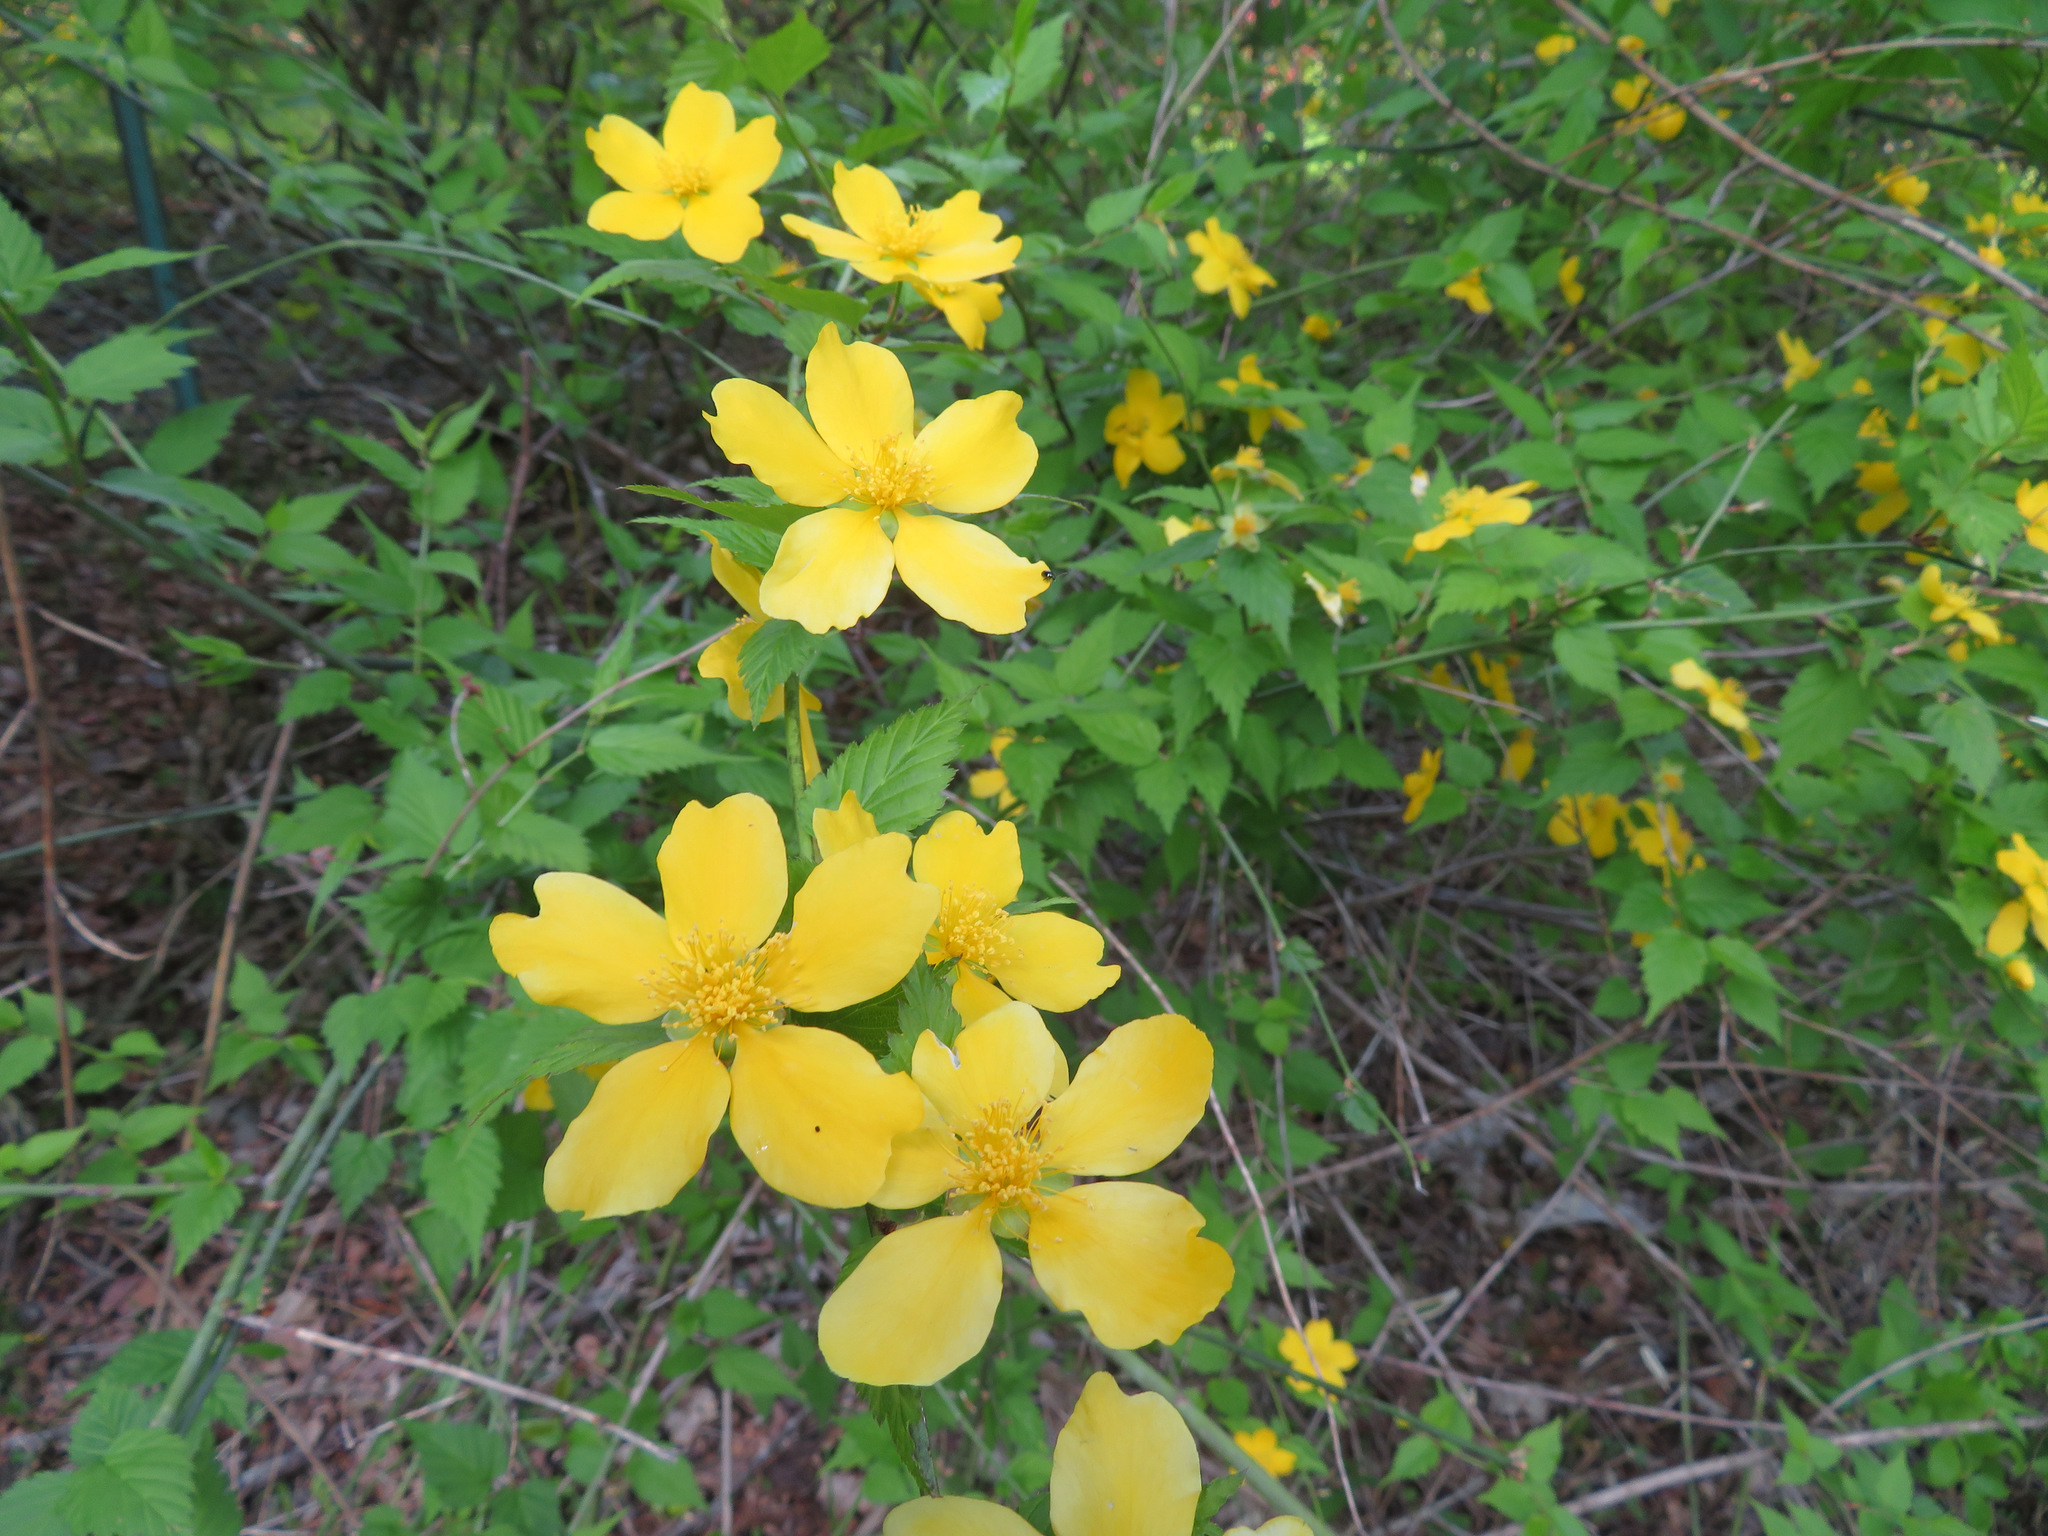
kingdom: Plantae
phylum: Tracheophyta
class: Magnoliopsida
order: Rosales
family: Rosaceae
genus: Kerria
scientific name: Kerria japonica
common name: Japanese kerria
